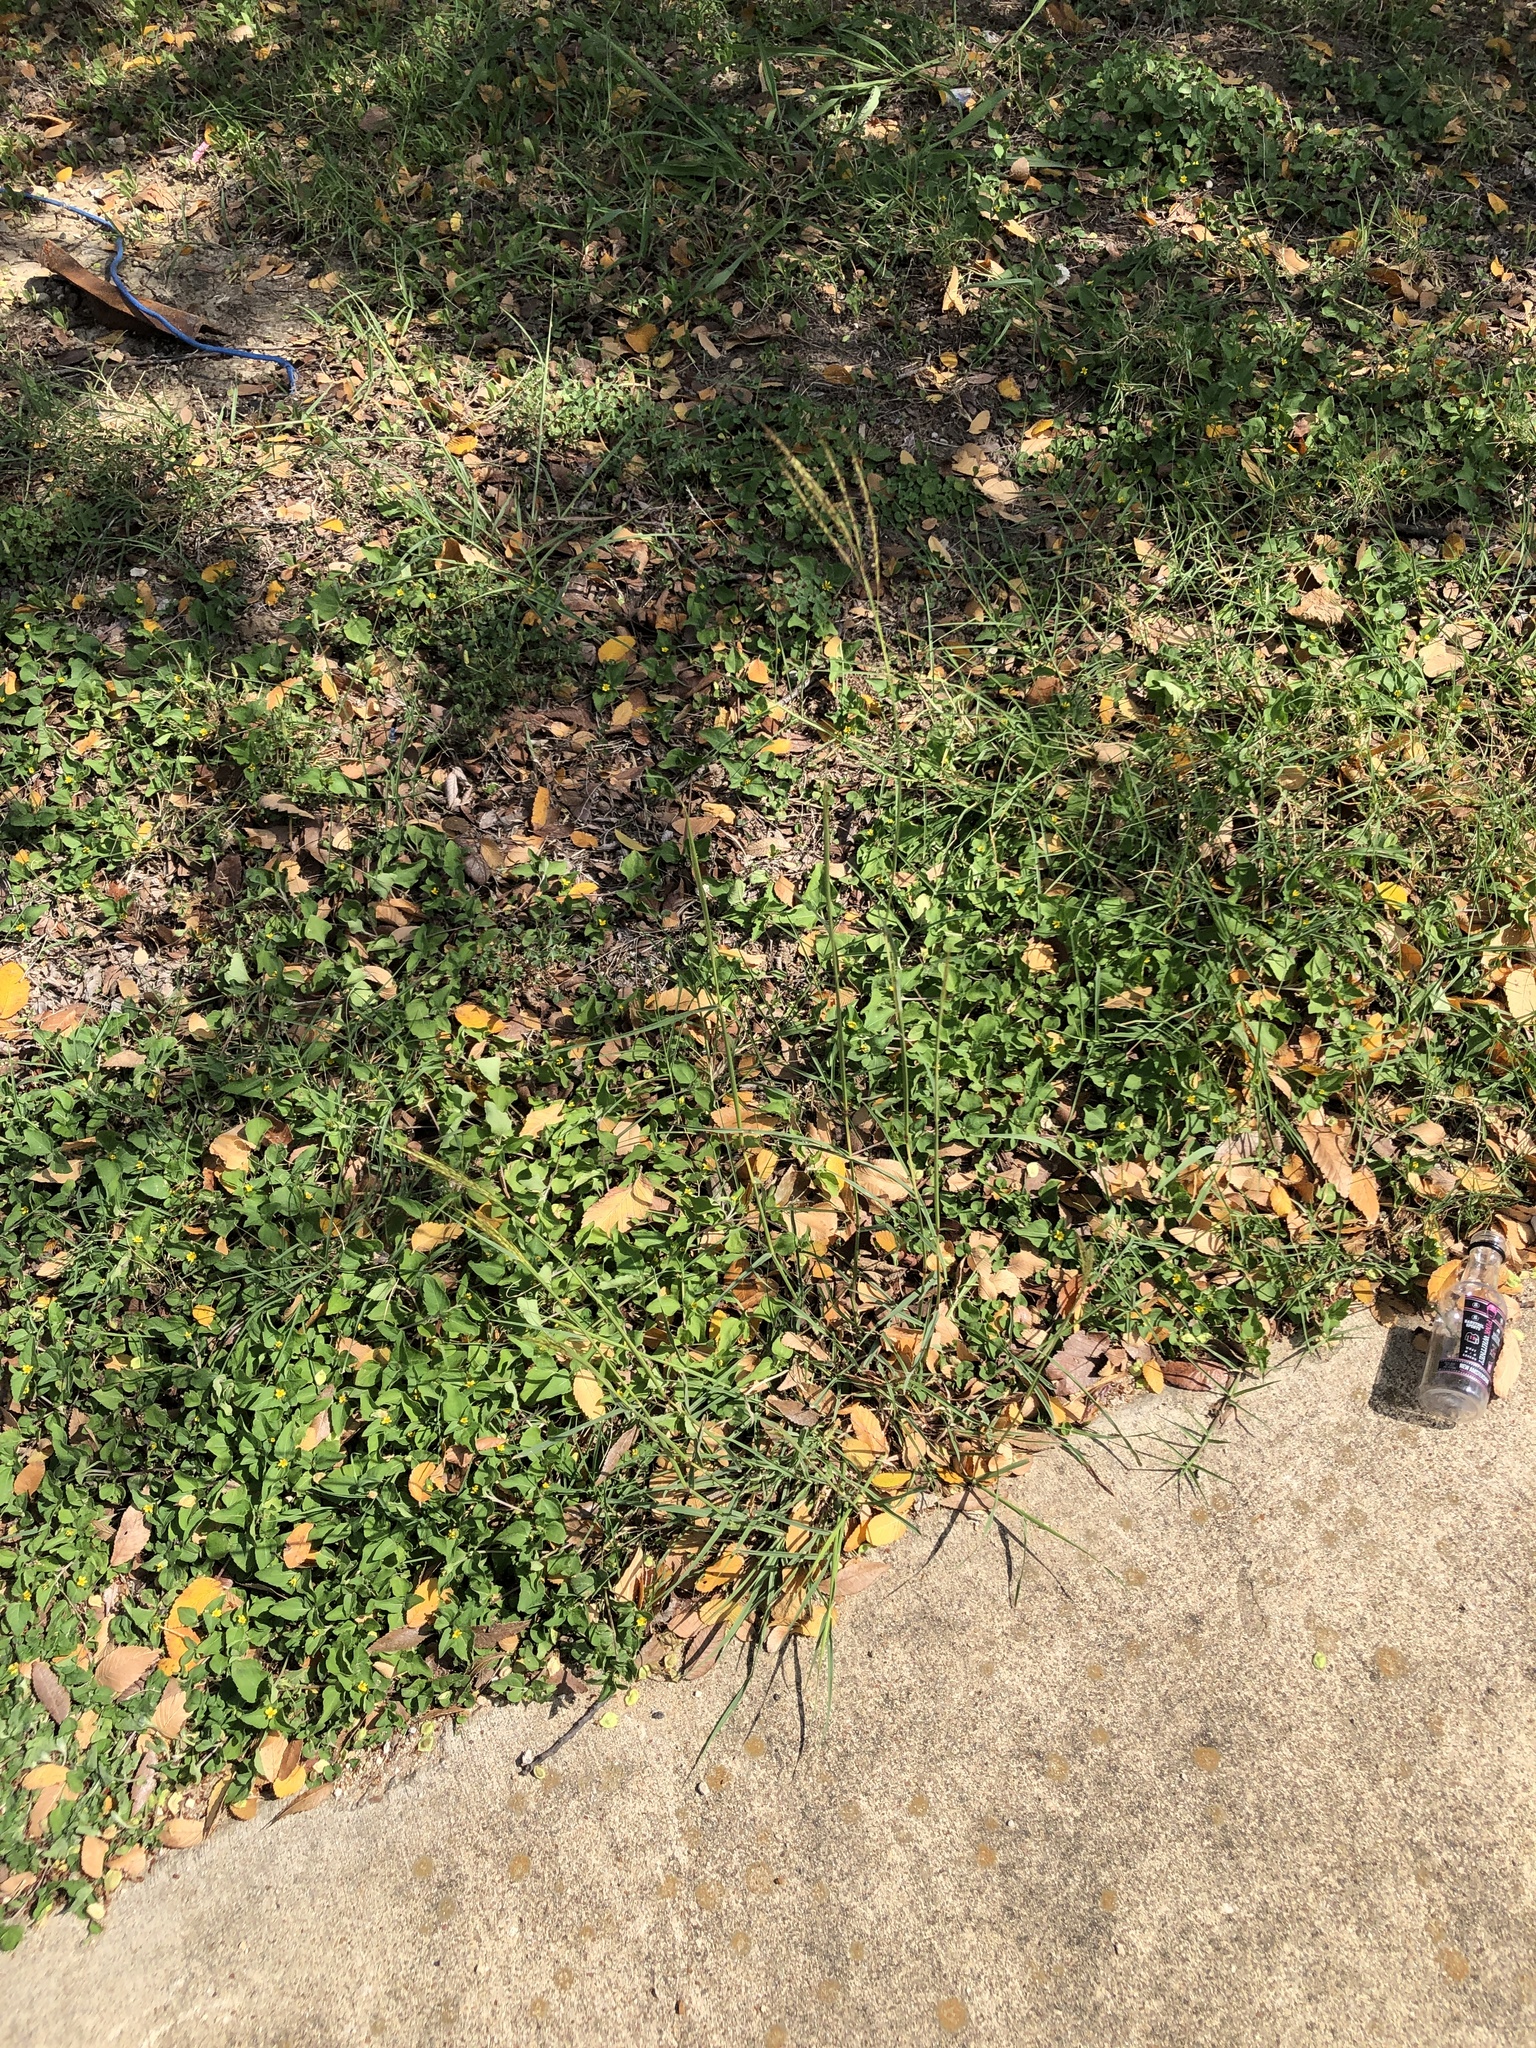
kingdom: Plantae
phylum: Tracheophyta
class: Liliopsida
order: Poales
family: Poaceae
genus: Bothriochloa
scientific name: Bothriochloa ischaemum
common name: Yellow bluestem
